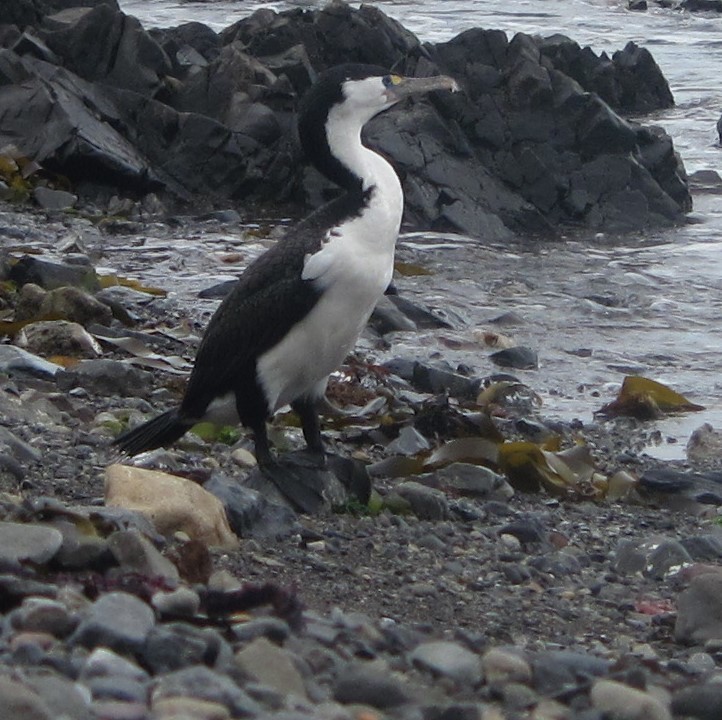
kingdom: Animalia
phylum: Chordata
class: Aves
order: Suliformes
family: Phalacrocoracidae
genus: Phalacrocorax
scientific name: Phalacrocorax varius
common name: Pied cormorant
